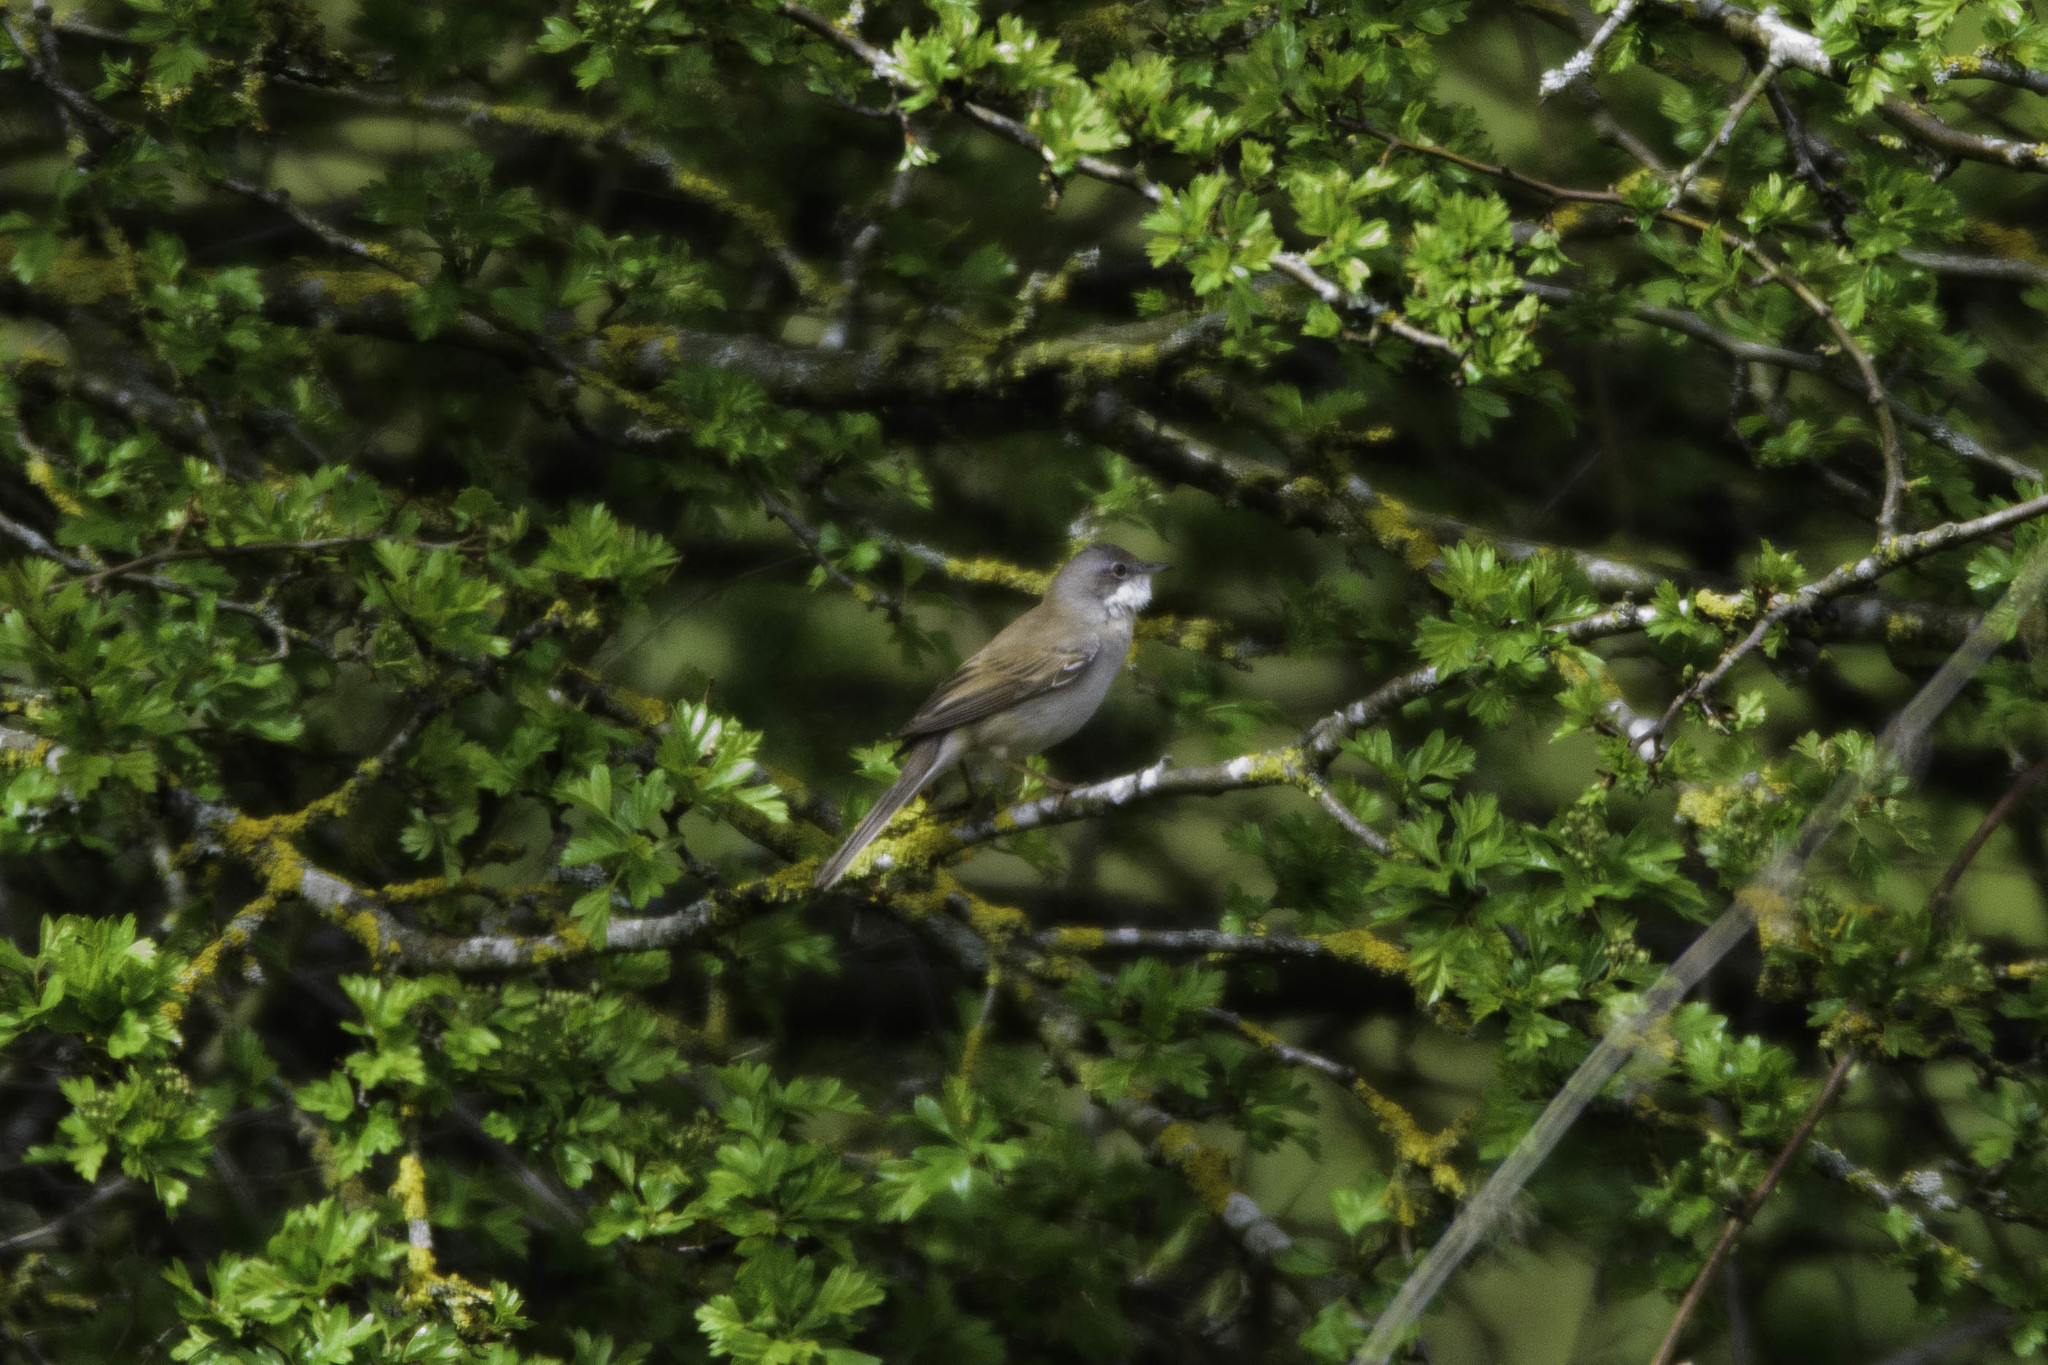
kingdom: Animalia
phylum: Chordata
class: Aves
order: Passeriformes
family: Sylviidae
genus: Sylvia
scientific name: Sylvia communis
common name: Common whitethroat
